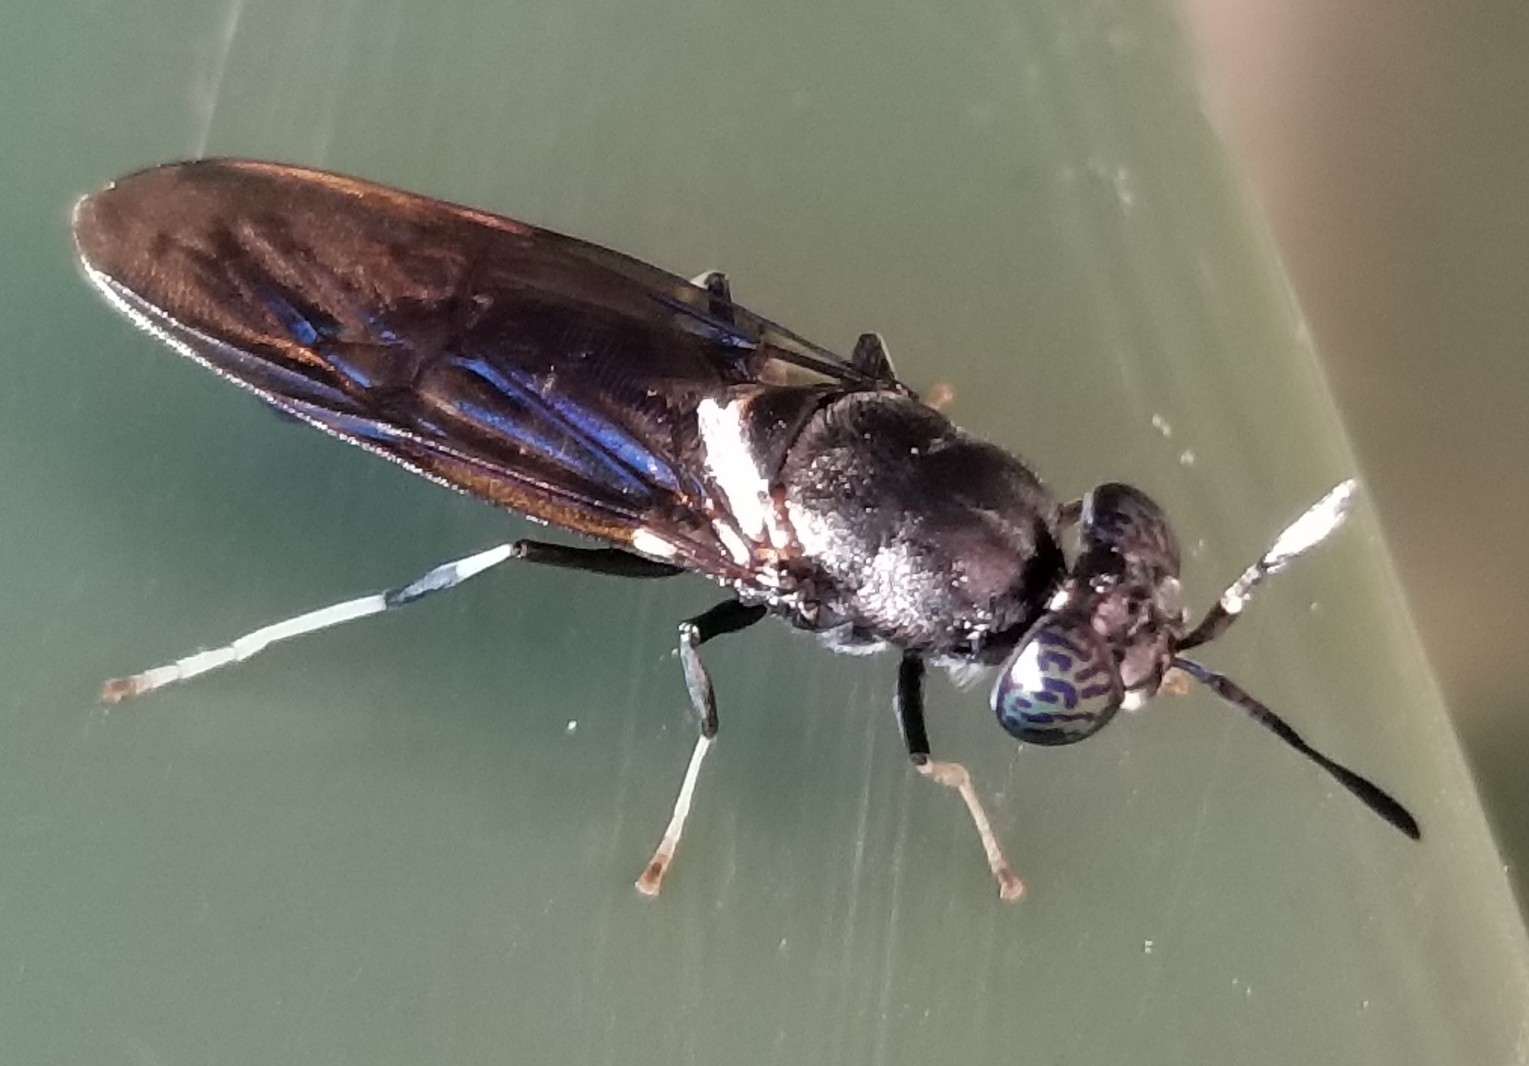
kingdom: Animalia
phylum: Arthropoda
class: Insecta
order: Diptera
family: Stratiomyidae
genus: Hermetia
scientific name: Hermetia illucens
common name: Black soldier fly
